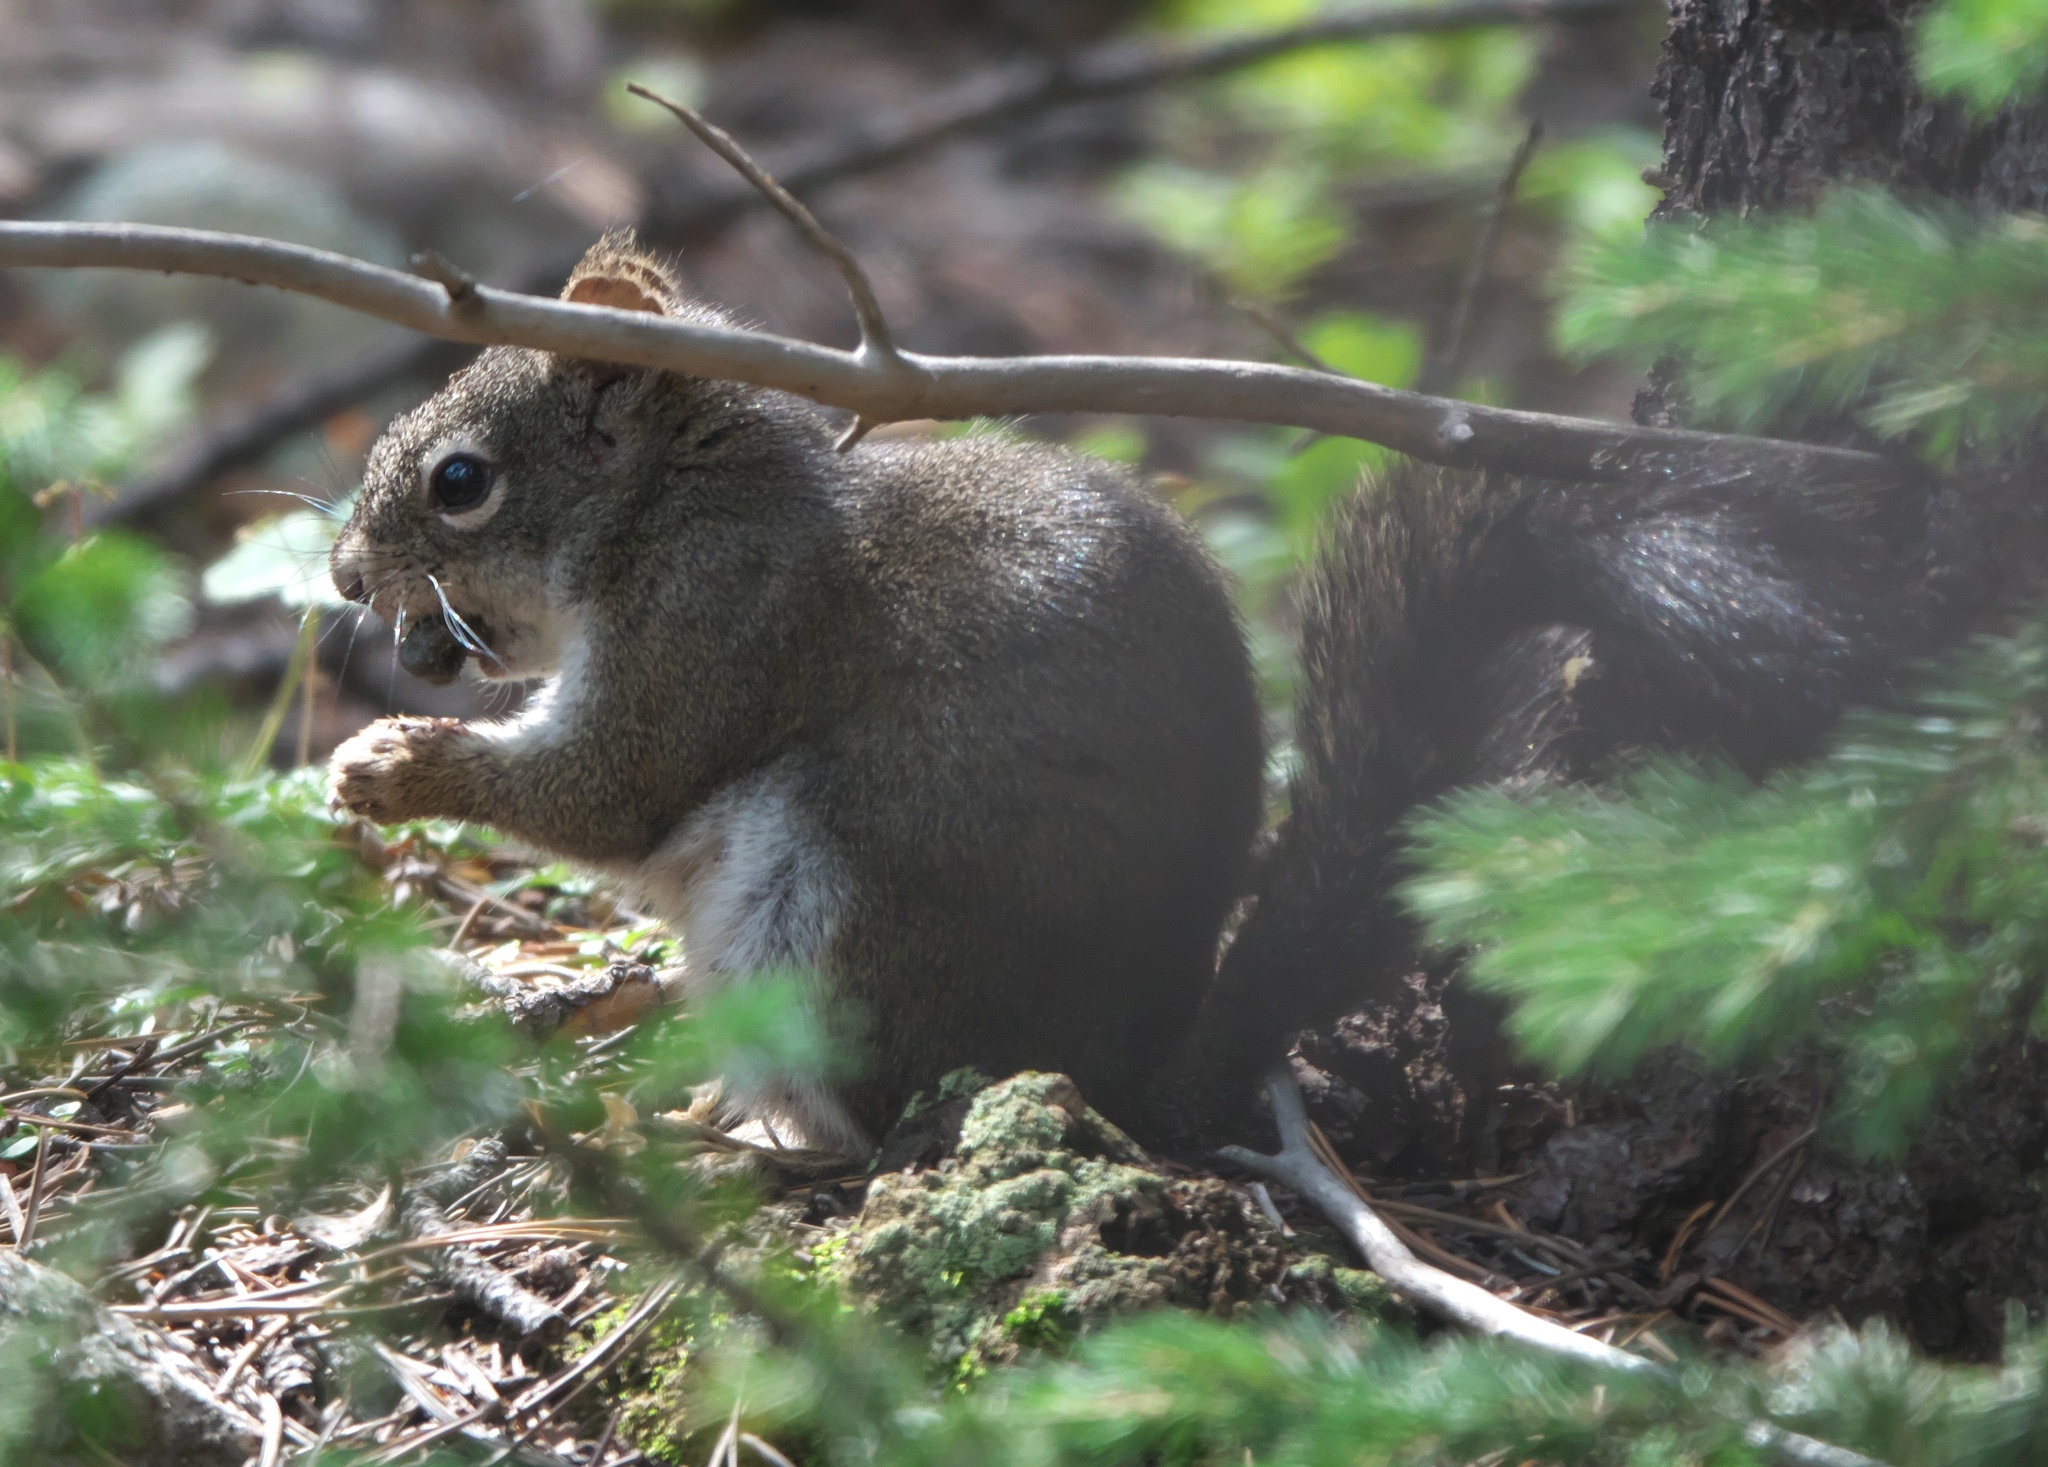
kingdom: Animalia
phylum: Chordata
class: Mammalia
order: Rodentia
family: Sciuridae
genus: Tamiasciurus
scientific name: Tamiasciurus hudsonicus
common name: Red squirrel
